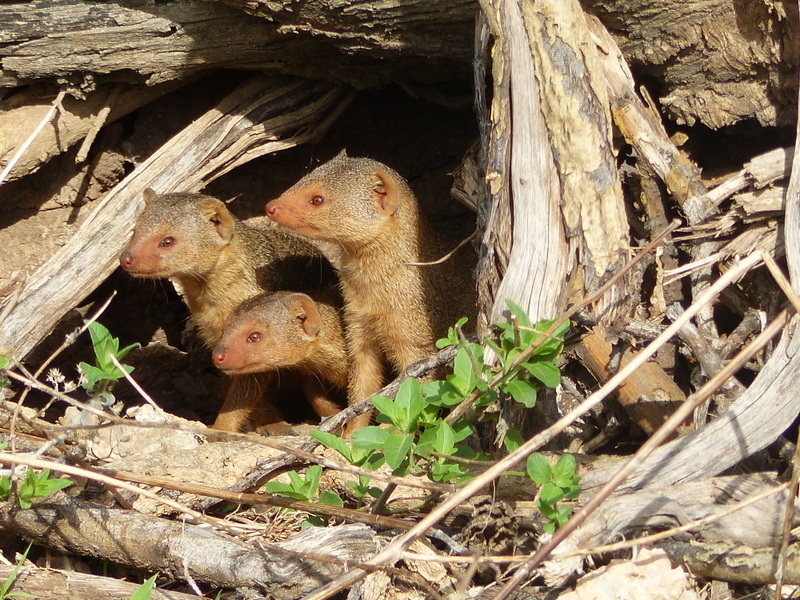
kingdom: Animalia
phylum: Chordata
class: Mammalia
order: Carnivora
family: Herpestidae
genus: Helogale
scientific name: Helogale parvula
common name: Common dwarf mongoose
